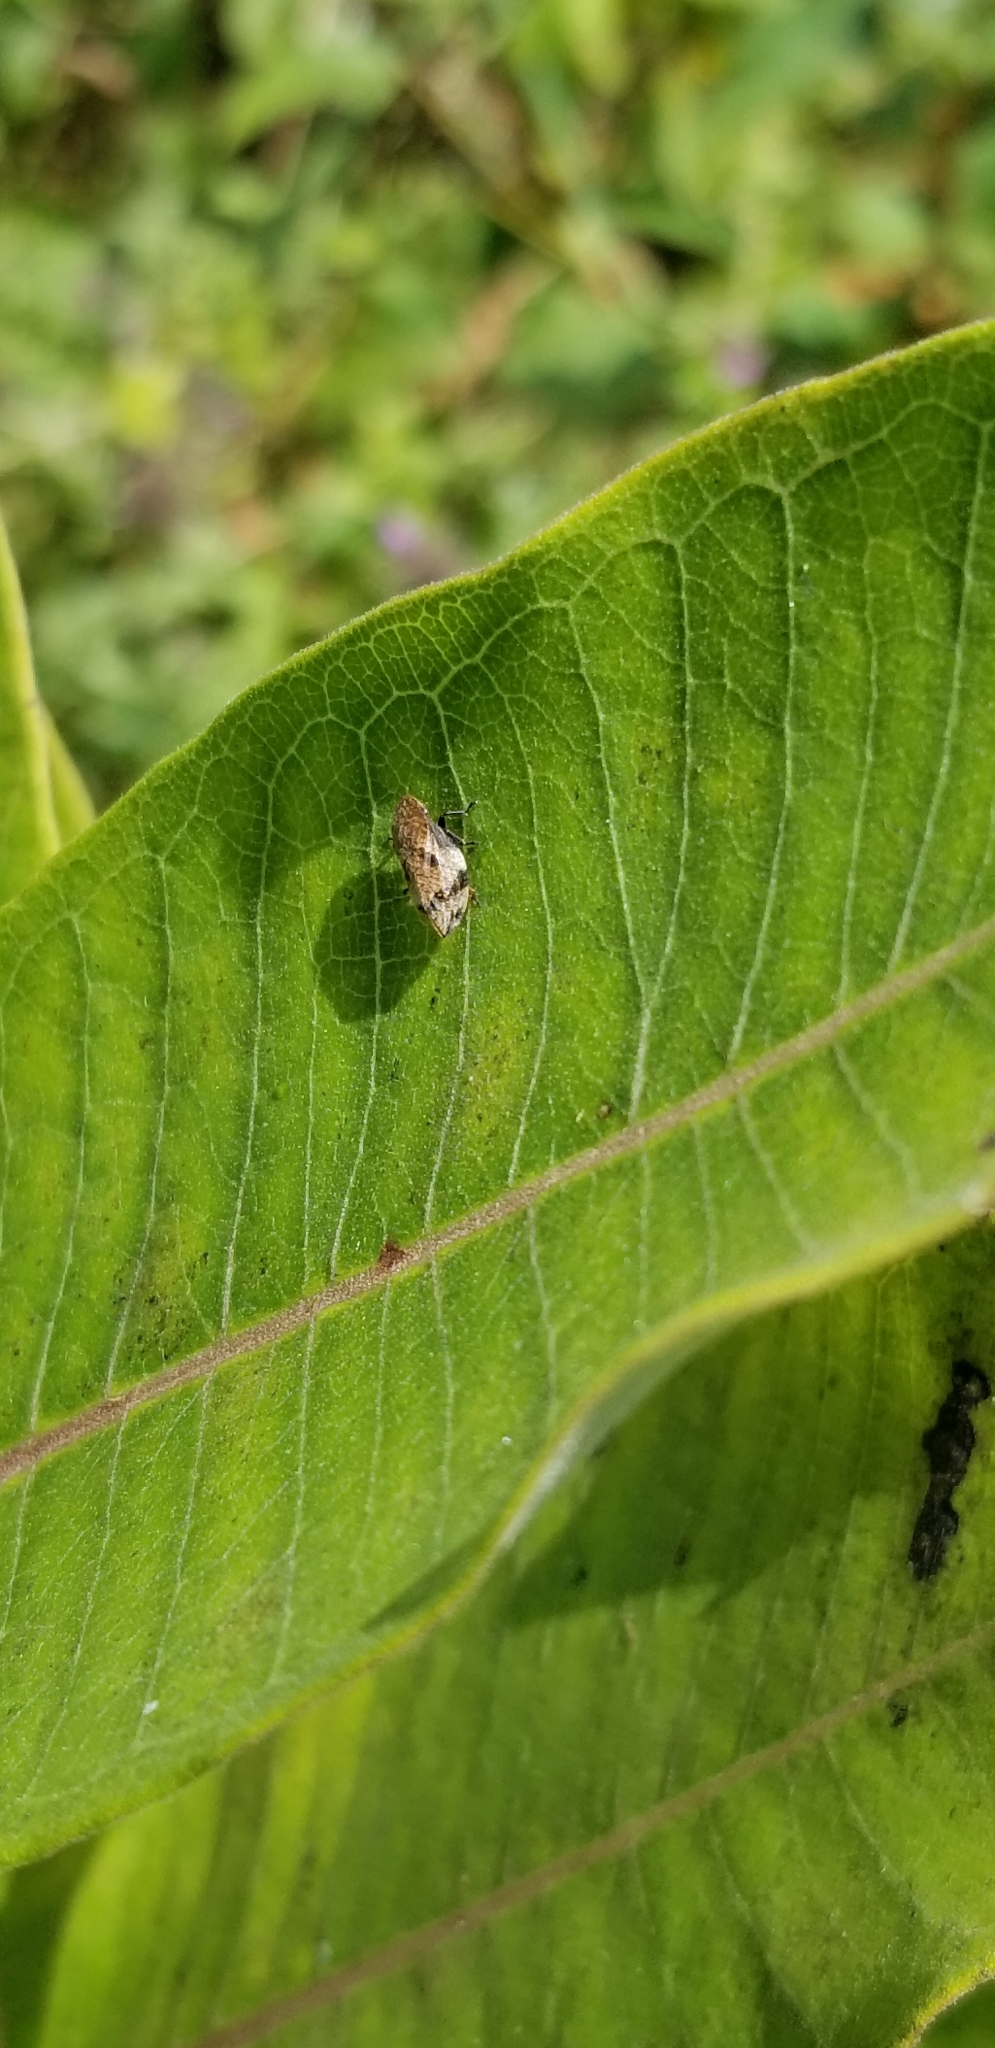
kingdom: Animalia
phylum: Arthropoda
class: Insecta
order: Hemiptera
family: Aphrophoridae
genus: Lepyronia
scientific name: Lepyronia quadrangularis
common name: Diamond-backed spittlebug
